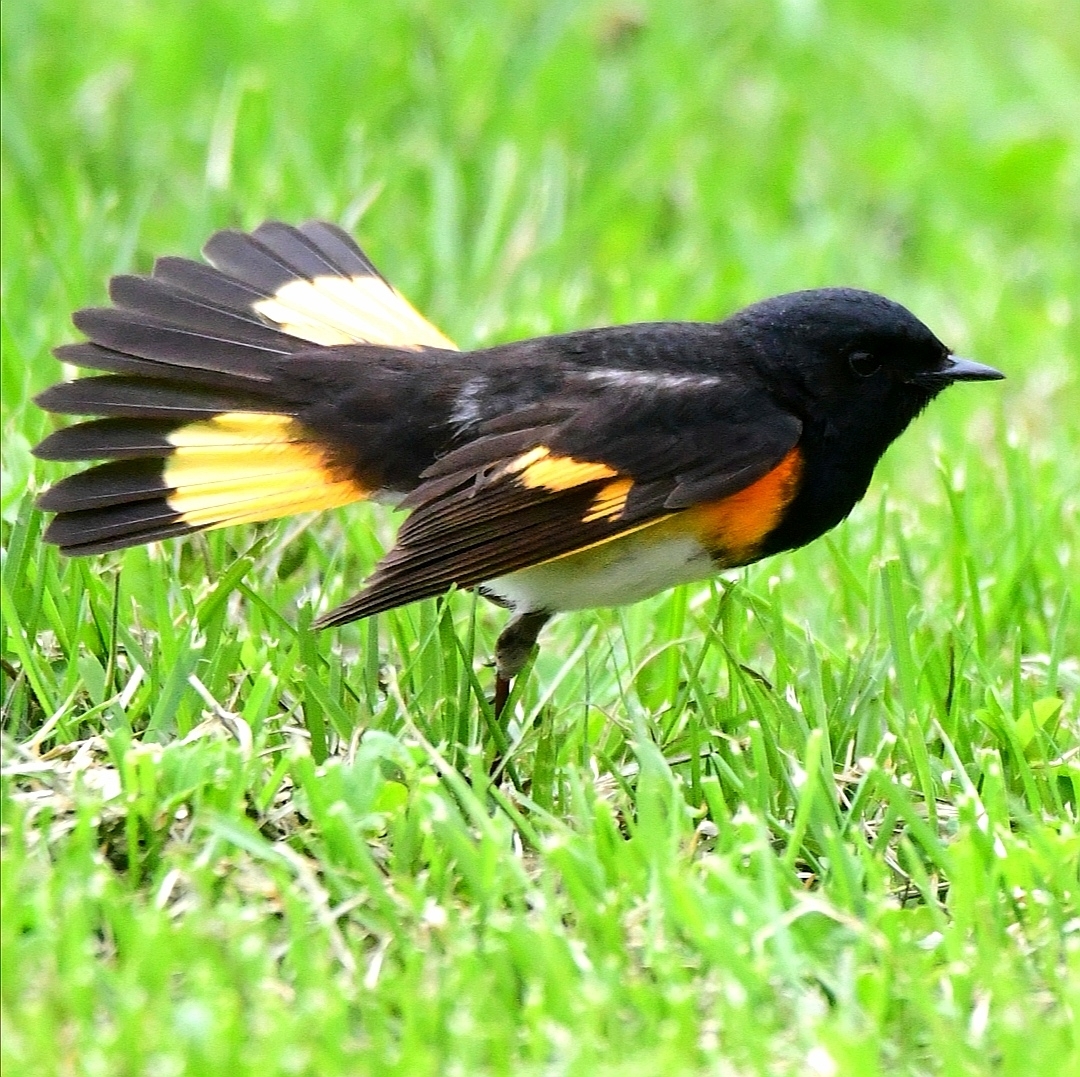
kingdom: Animalia
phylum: Chordata
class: Aves
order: Passeriformes
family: Parulidae
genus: Setophaga
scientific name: Setophaga ruticilla
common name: American redstart
